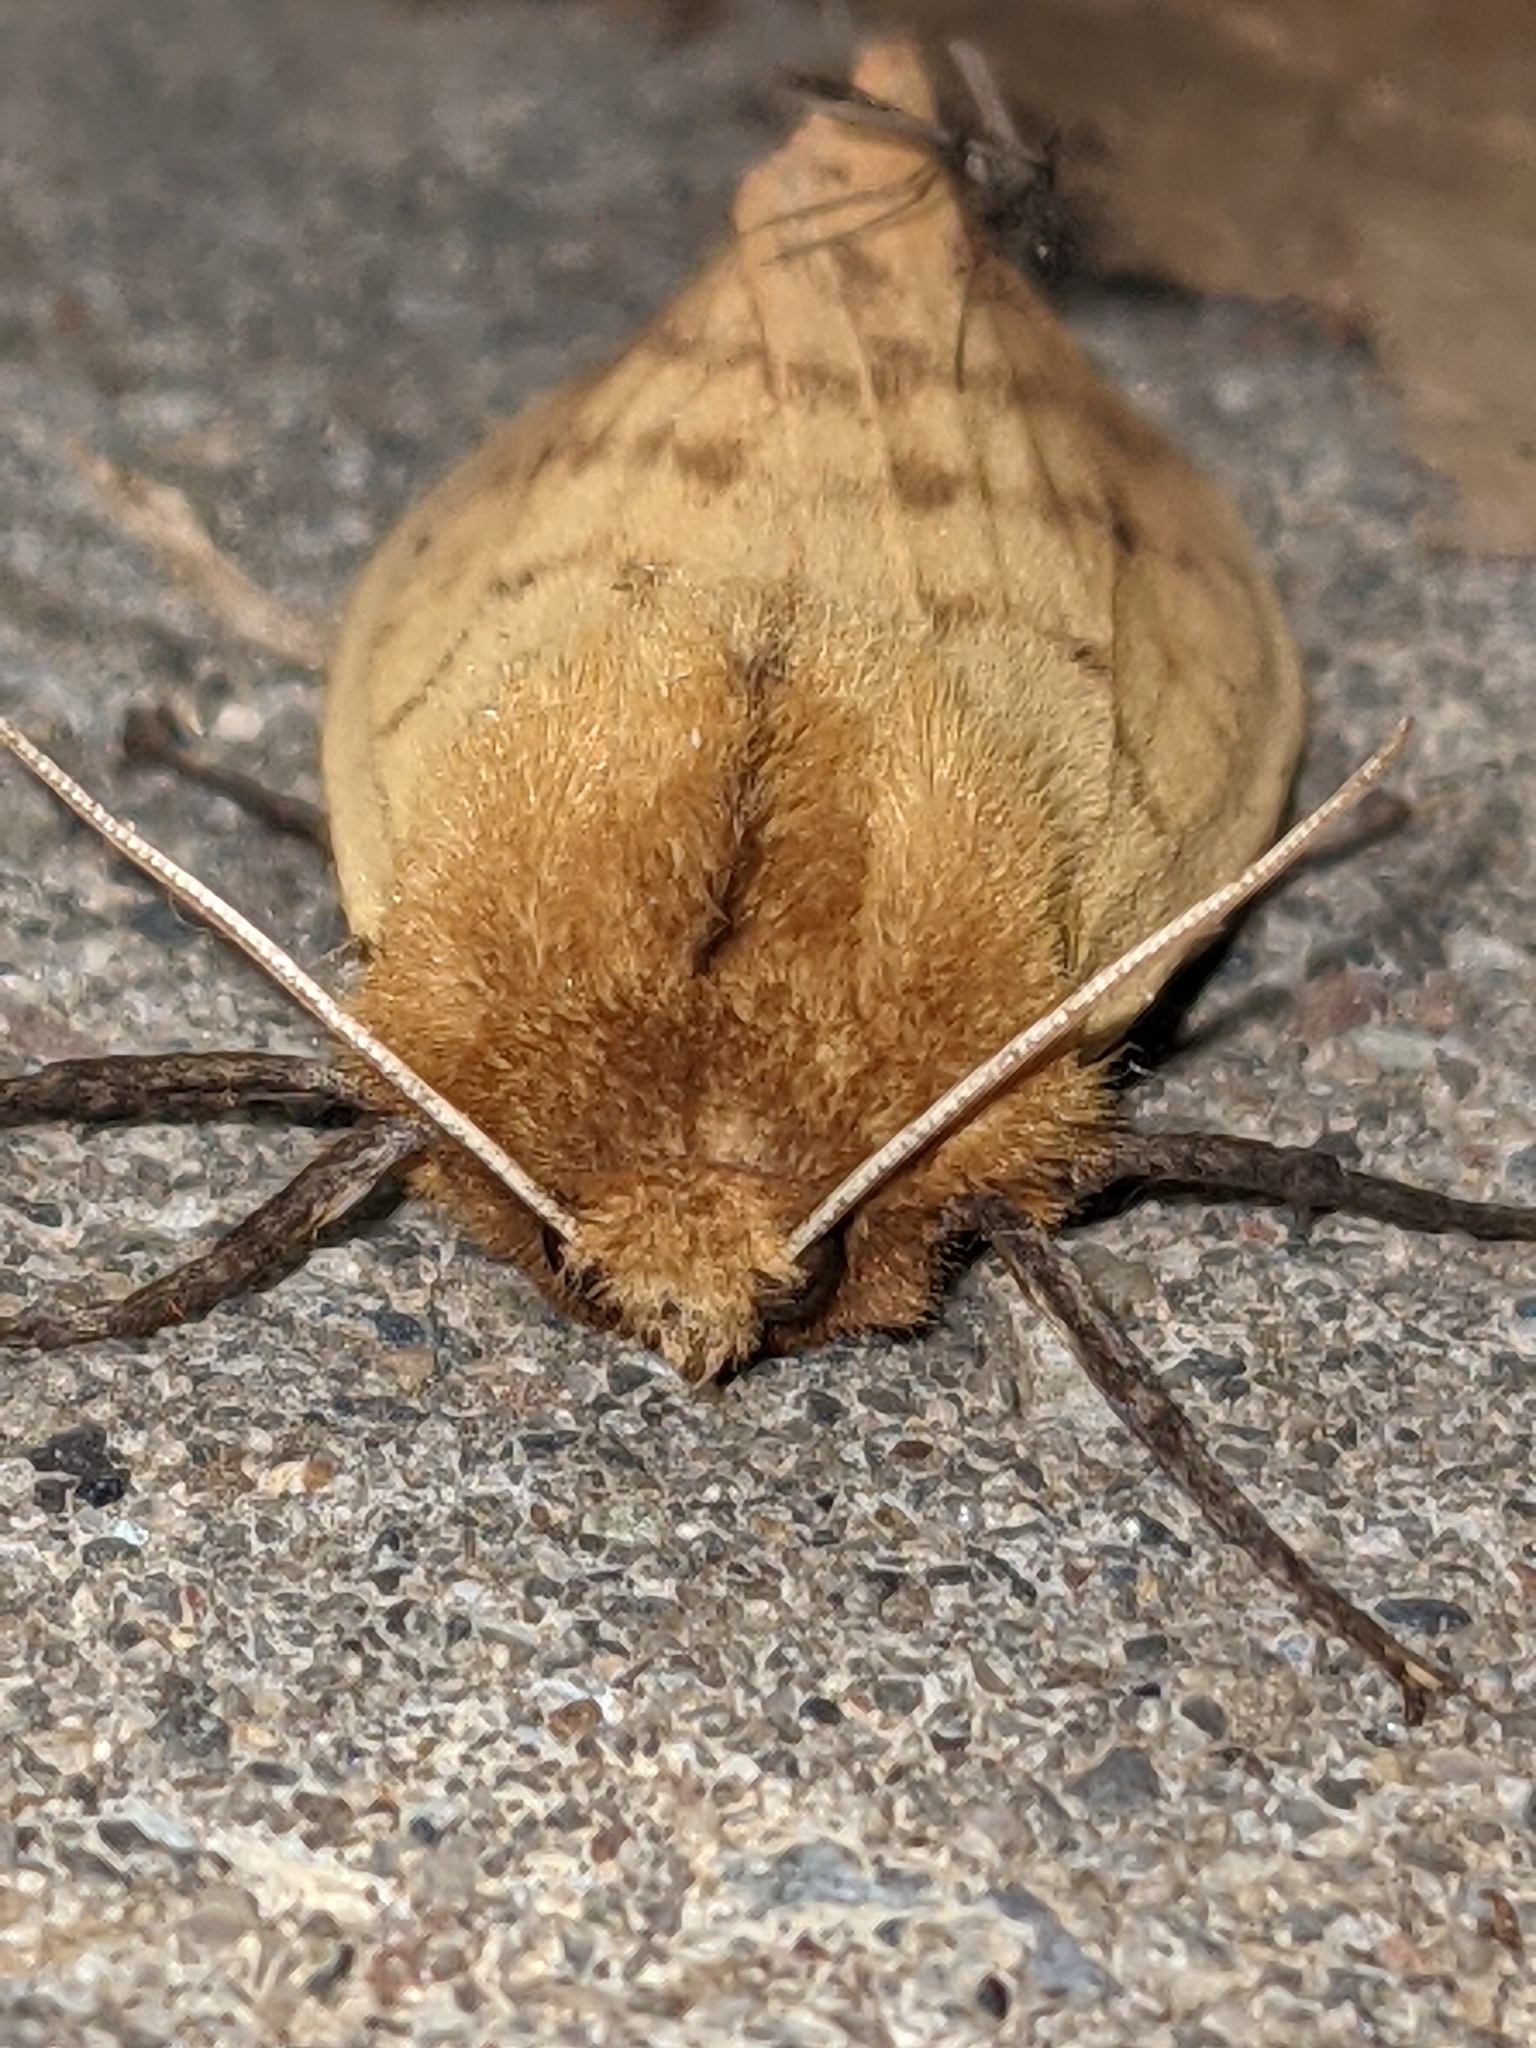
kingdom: Animalia
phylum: Arthropoda
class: Insecta
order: Lepidoptera
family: Erebidae
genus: Pyrrharctia
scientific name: Pyrrharctia isabella
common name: Isabella tiger moth
